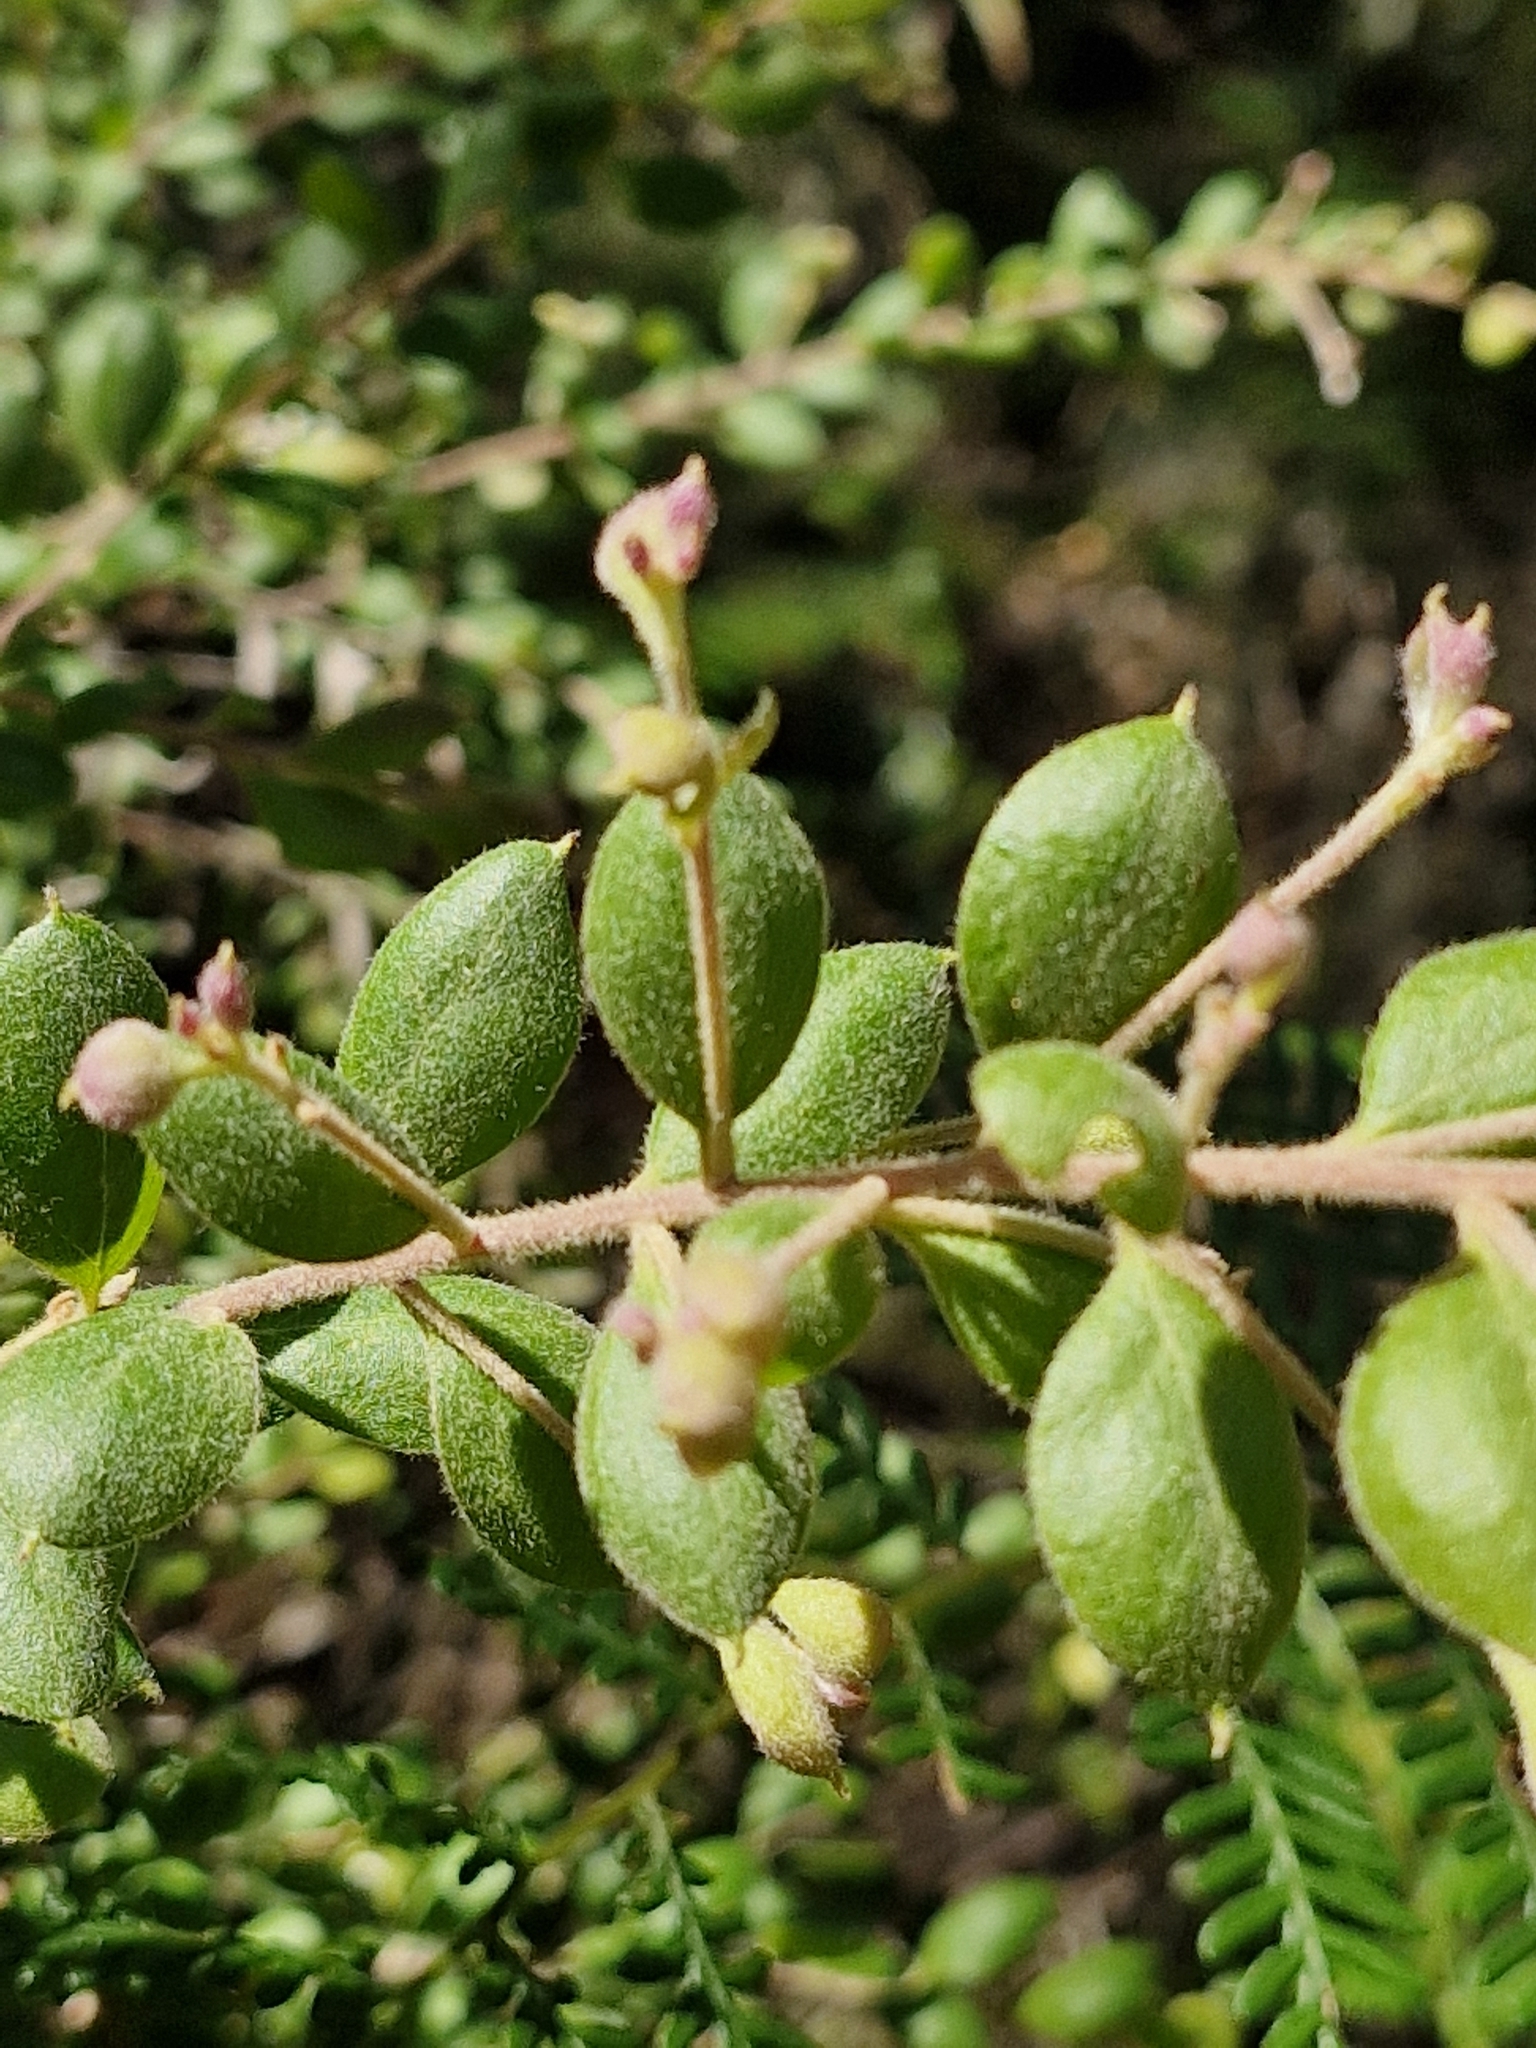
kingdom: Plantae
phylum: Tracheophyta
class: Magnoliopsida
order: Proteales
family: Proteaceae
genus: Grevillea
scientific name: Grevillea mucronulata
